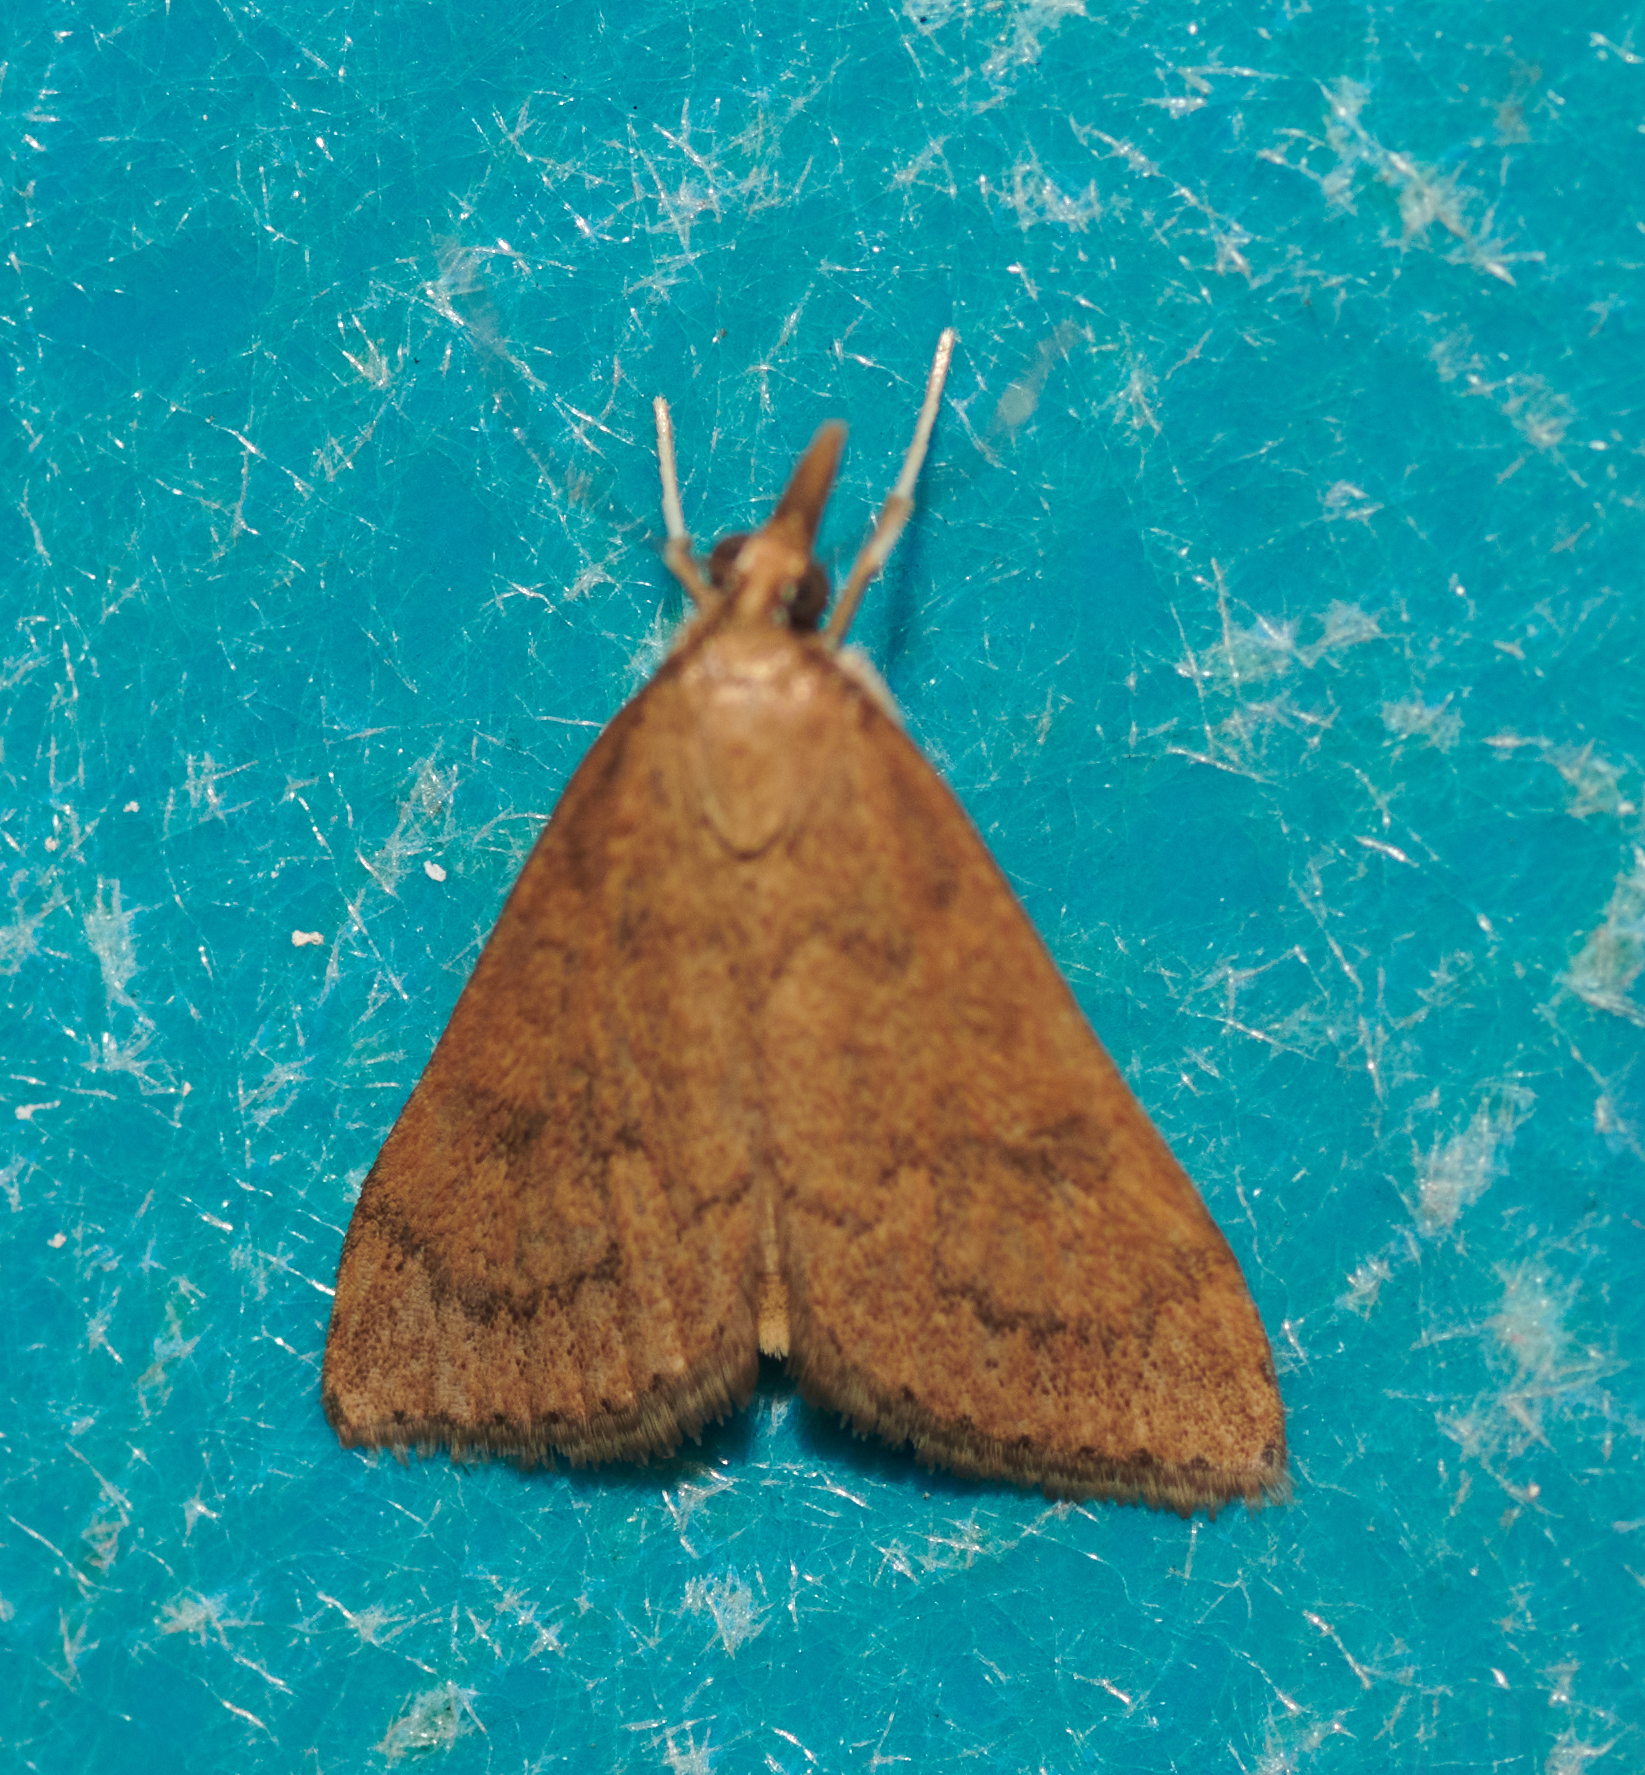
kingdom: Animalia
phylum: Arthropoda
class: Insecta
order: Lepidoptera
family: Crambidae
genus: Udea
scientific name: Udea rubigalis
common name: Celery leaftier moth
